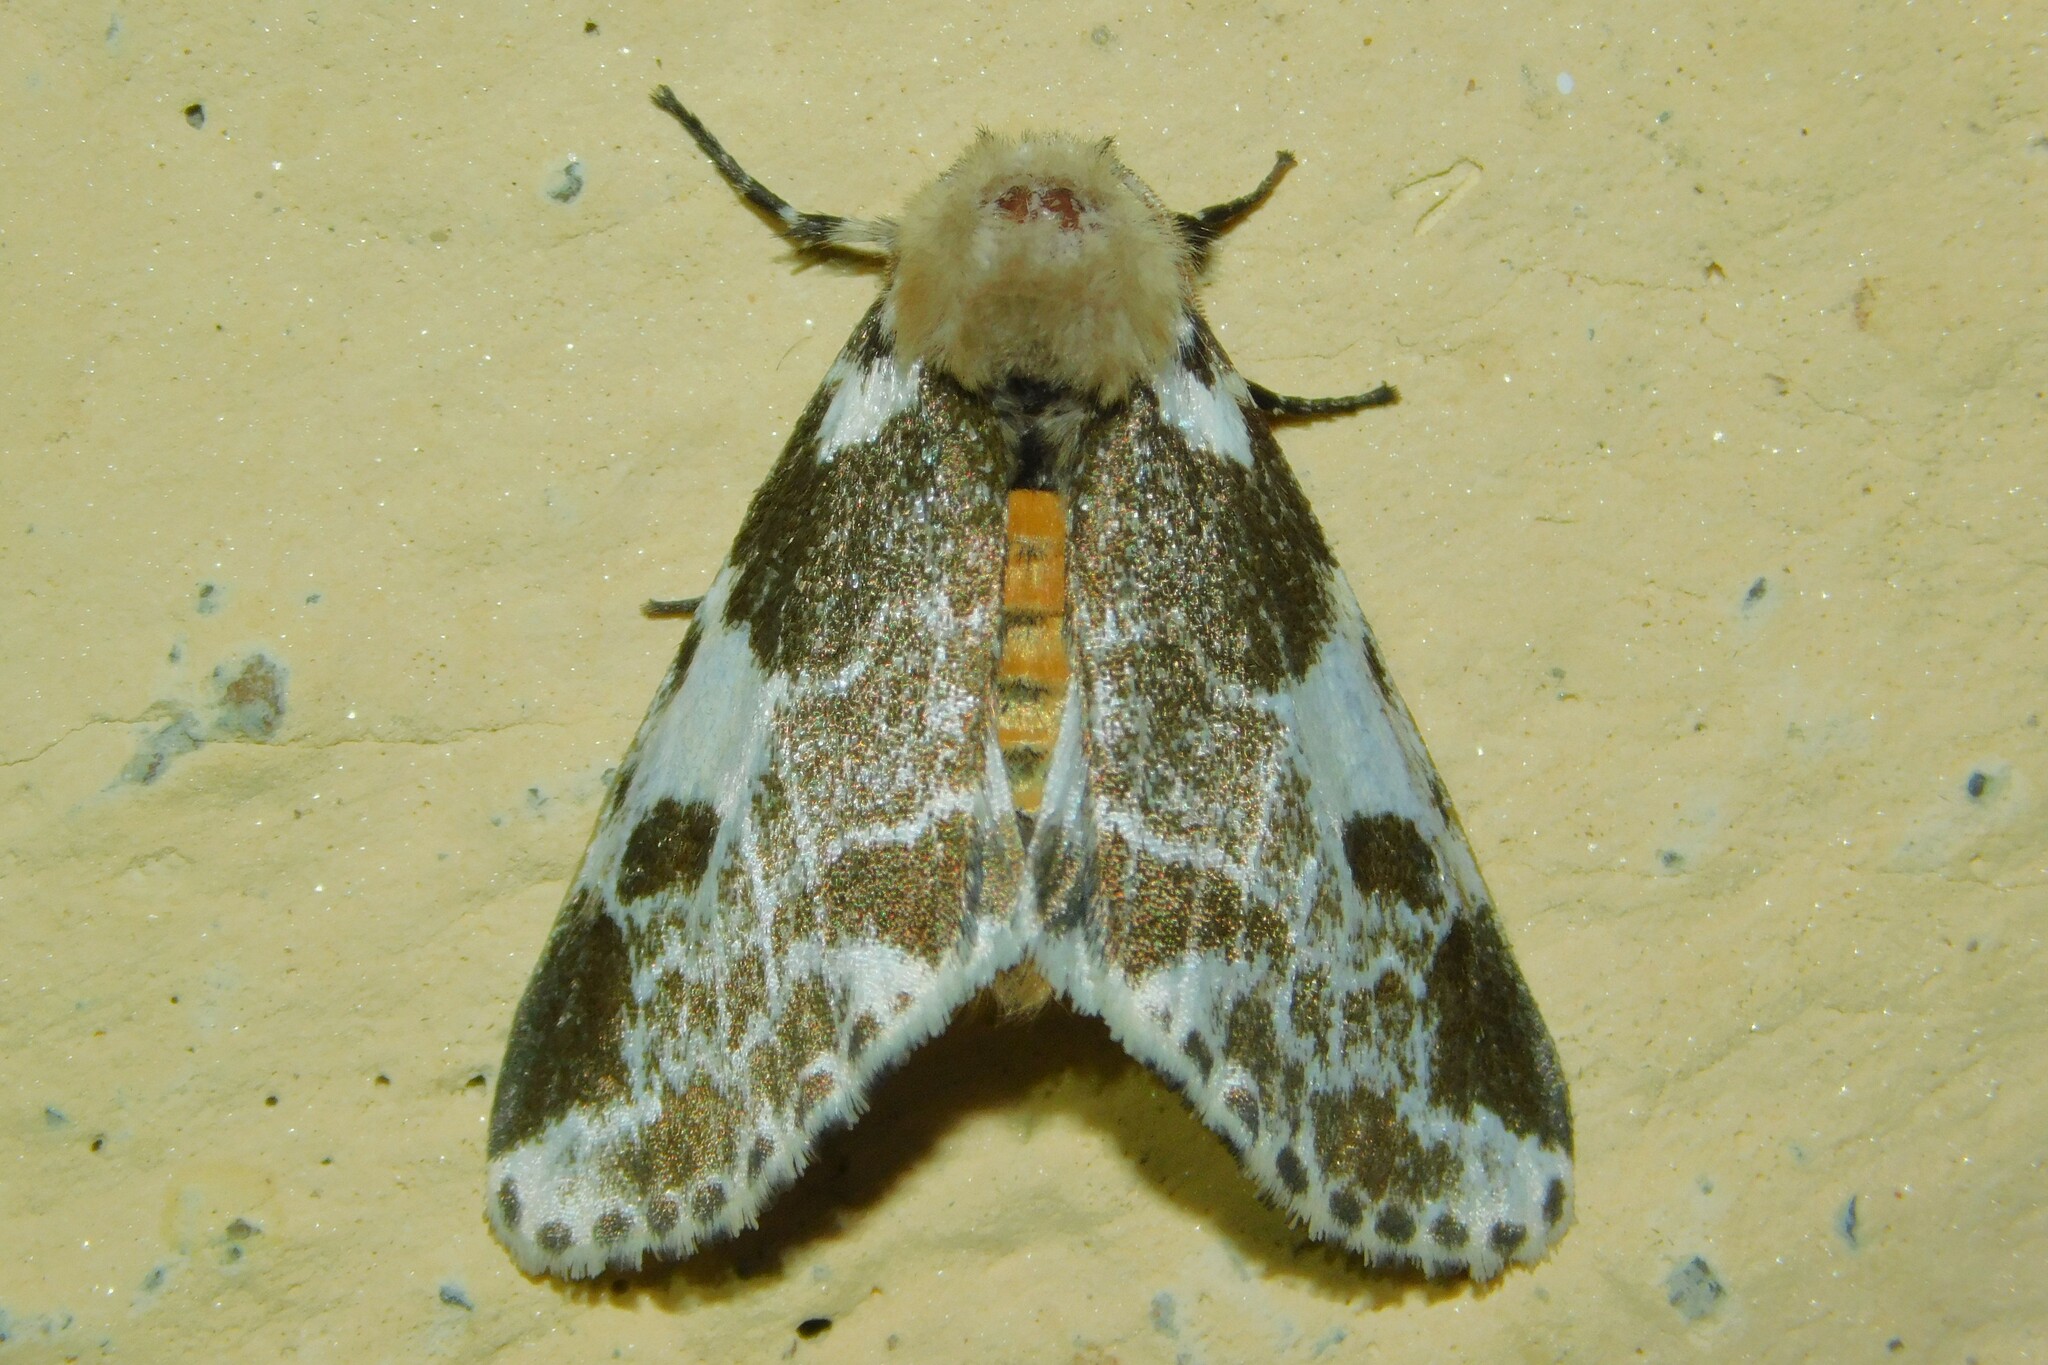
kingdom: Animalia
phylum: Arthropoda
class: Insecta
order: Lepidoptera
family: Erebidae
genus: Sciatta
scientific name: Sciatta inconcisa
